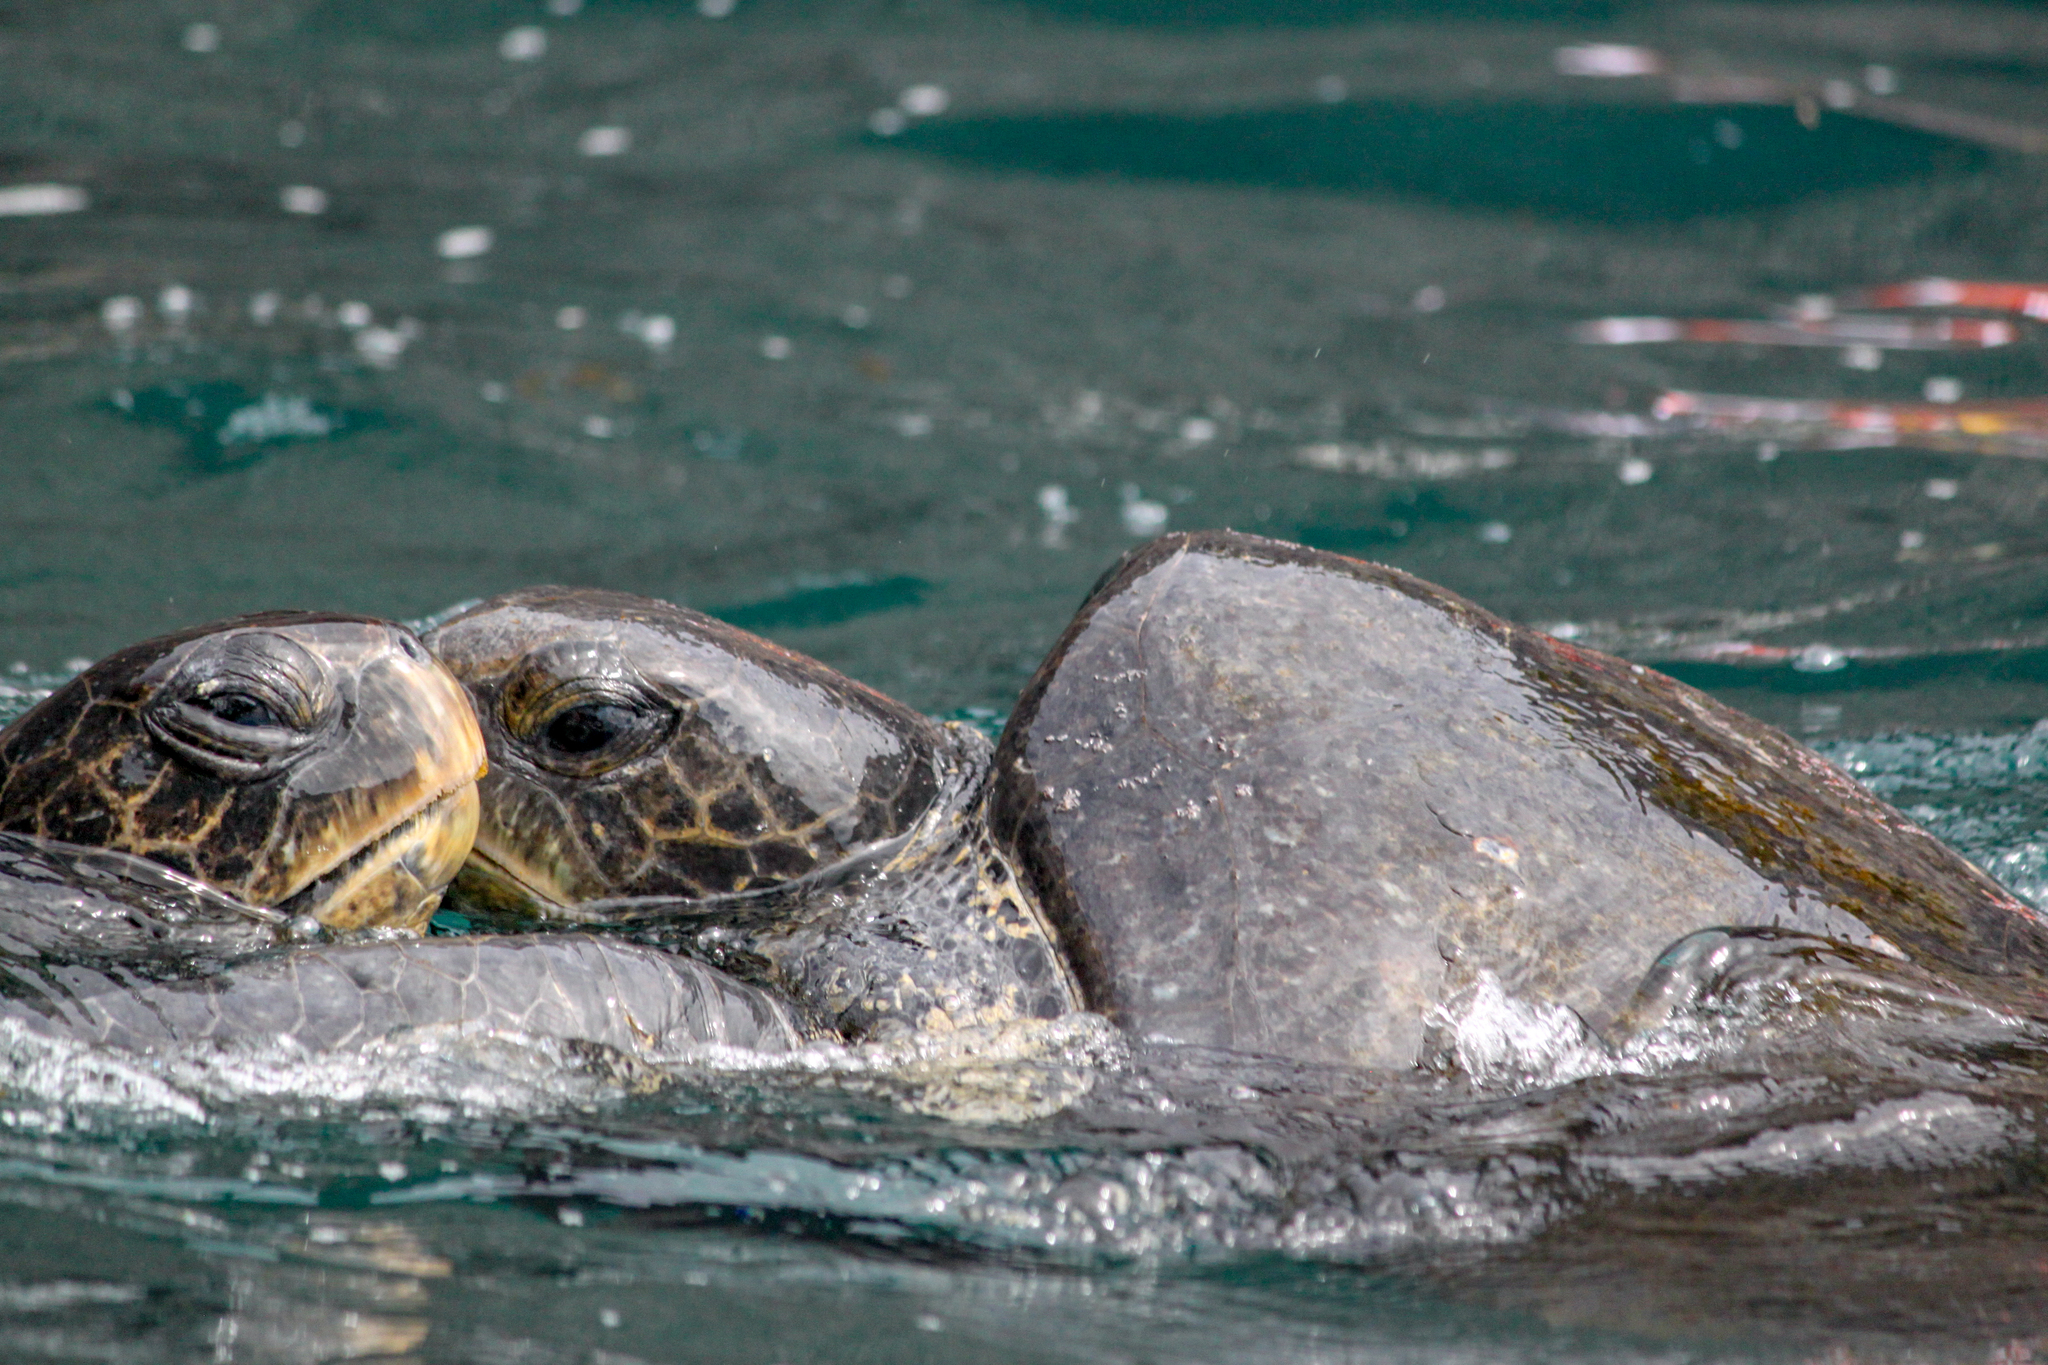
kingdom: Animalia
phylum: Chordata
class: Testudines
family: Cheloniidae
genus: Chelonia
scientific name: Chelonia mydas
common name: Green turtle
